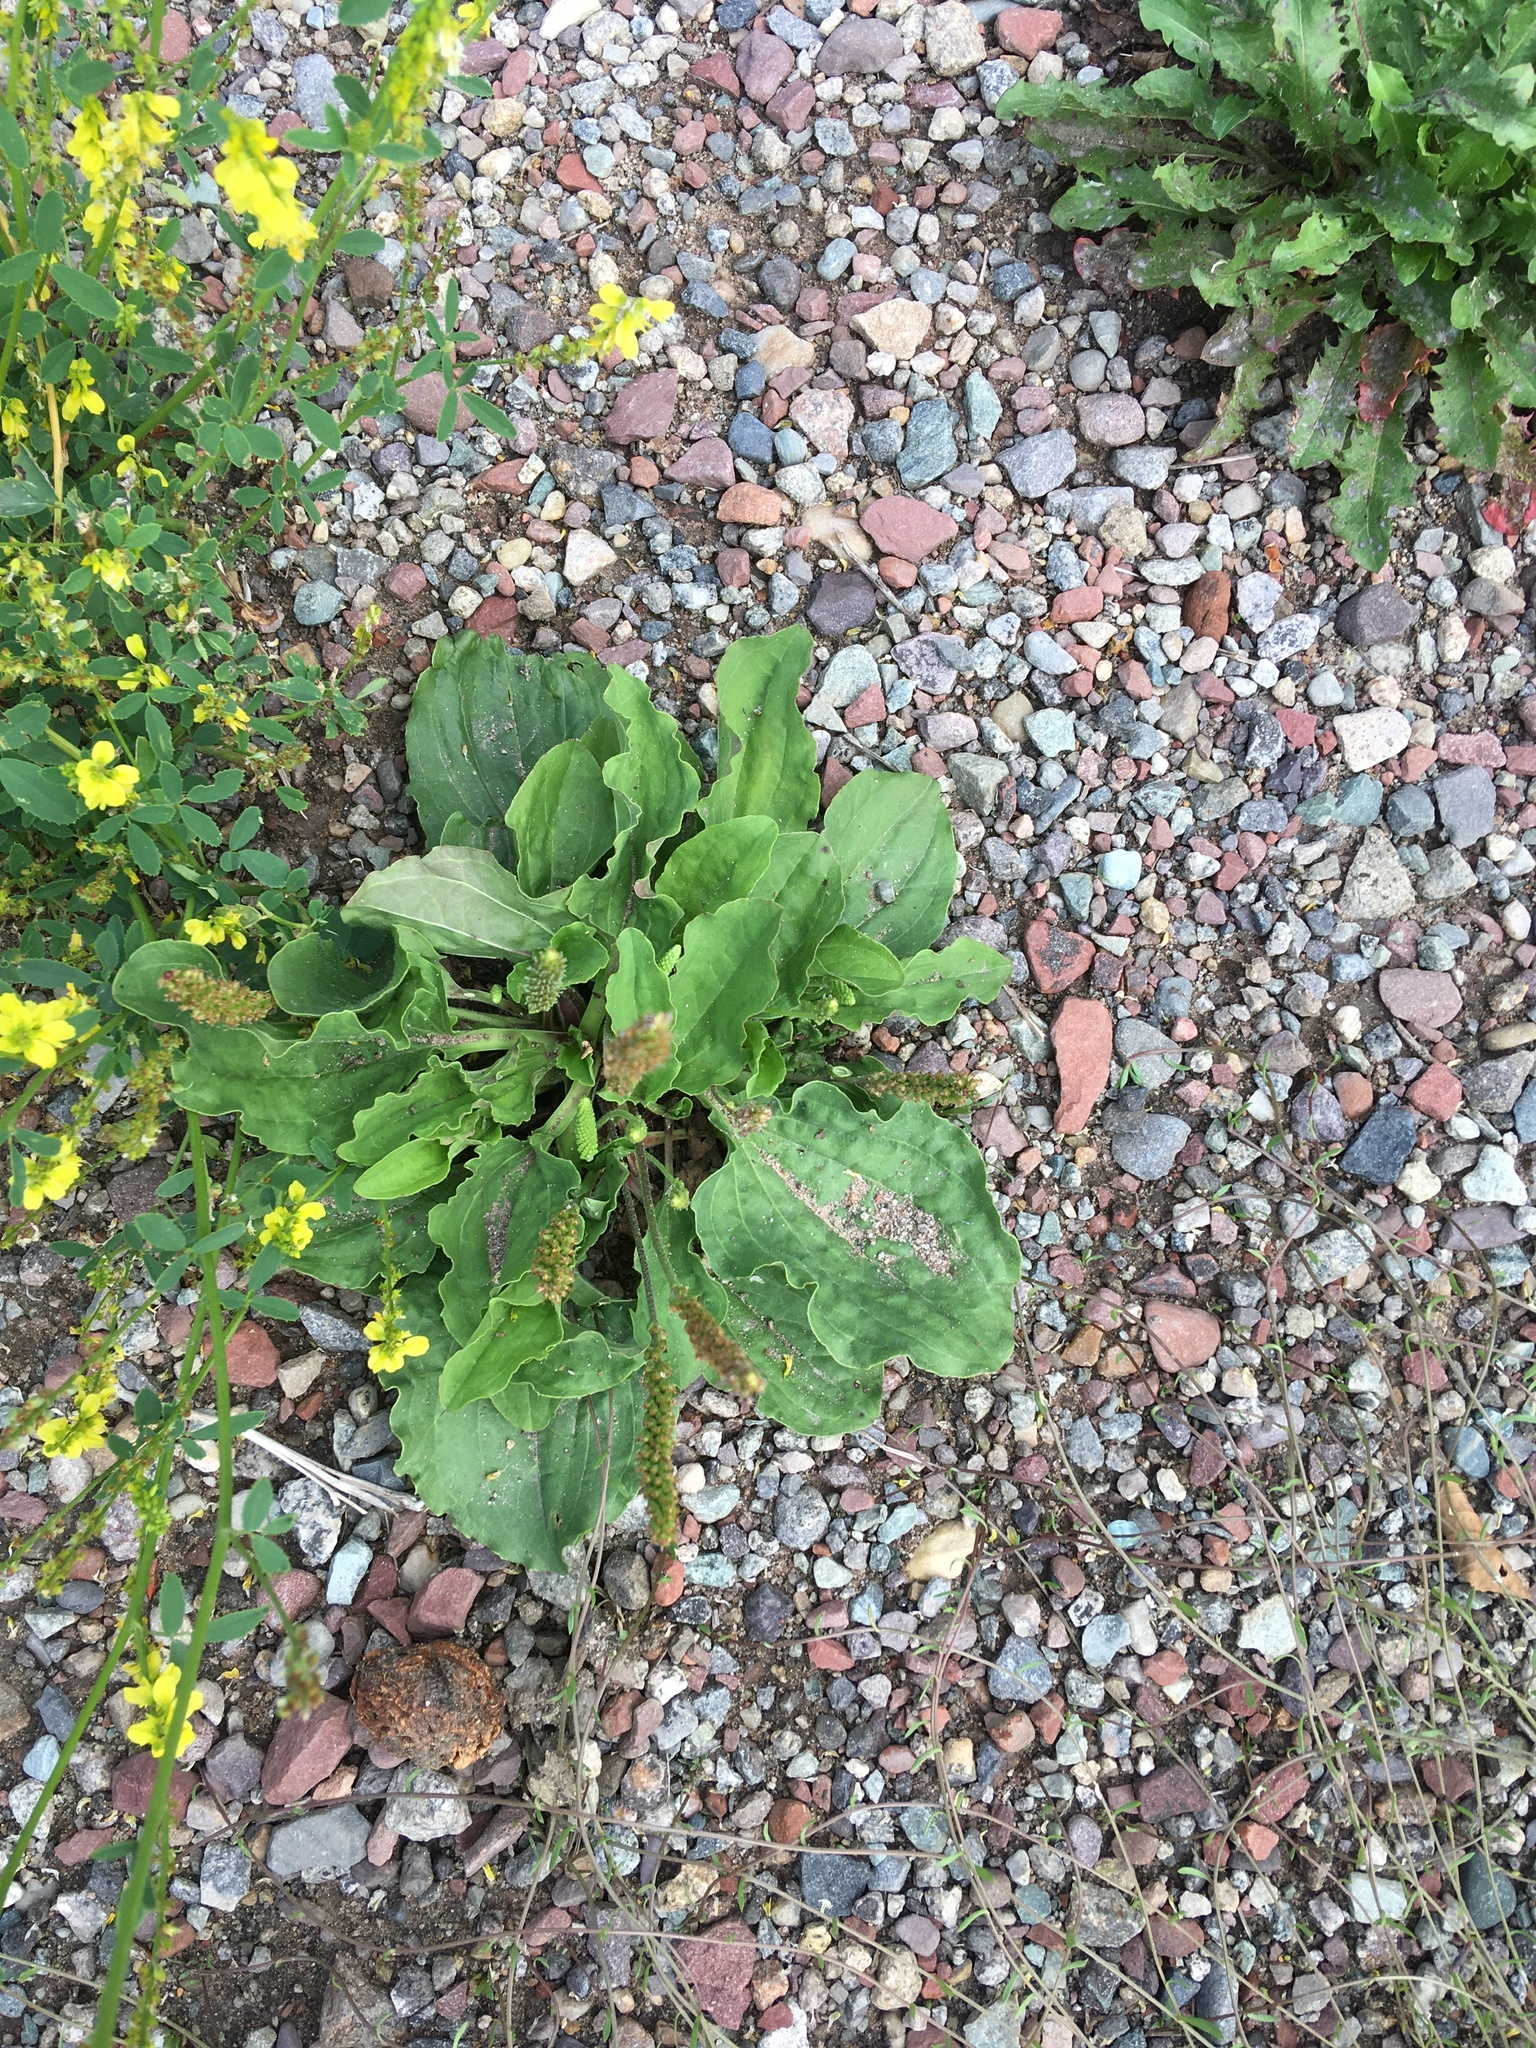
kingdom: Plantae
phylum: Tracheophyta
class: Magnoliopsida
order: Lamiales
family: Plantaginaceae
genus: Plantago
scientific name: Plantago major
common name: Common plantain
